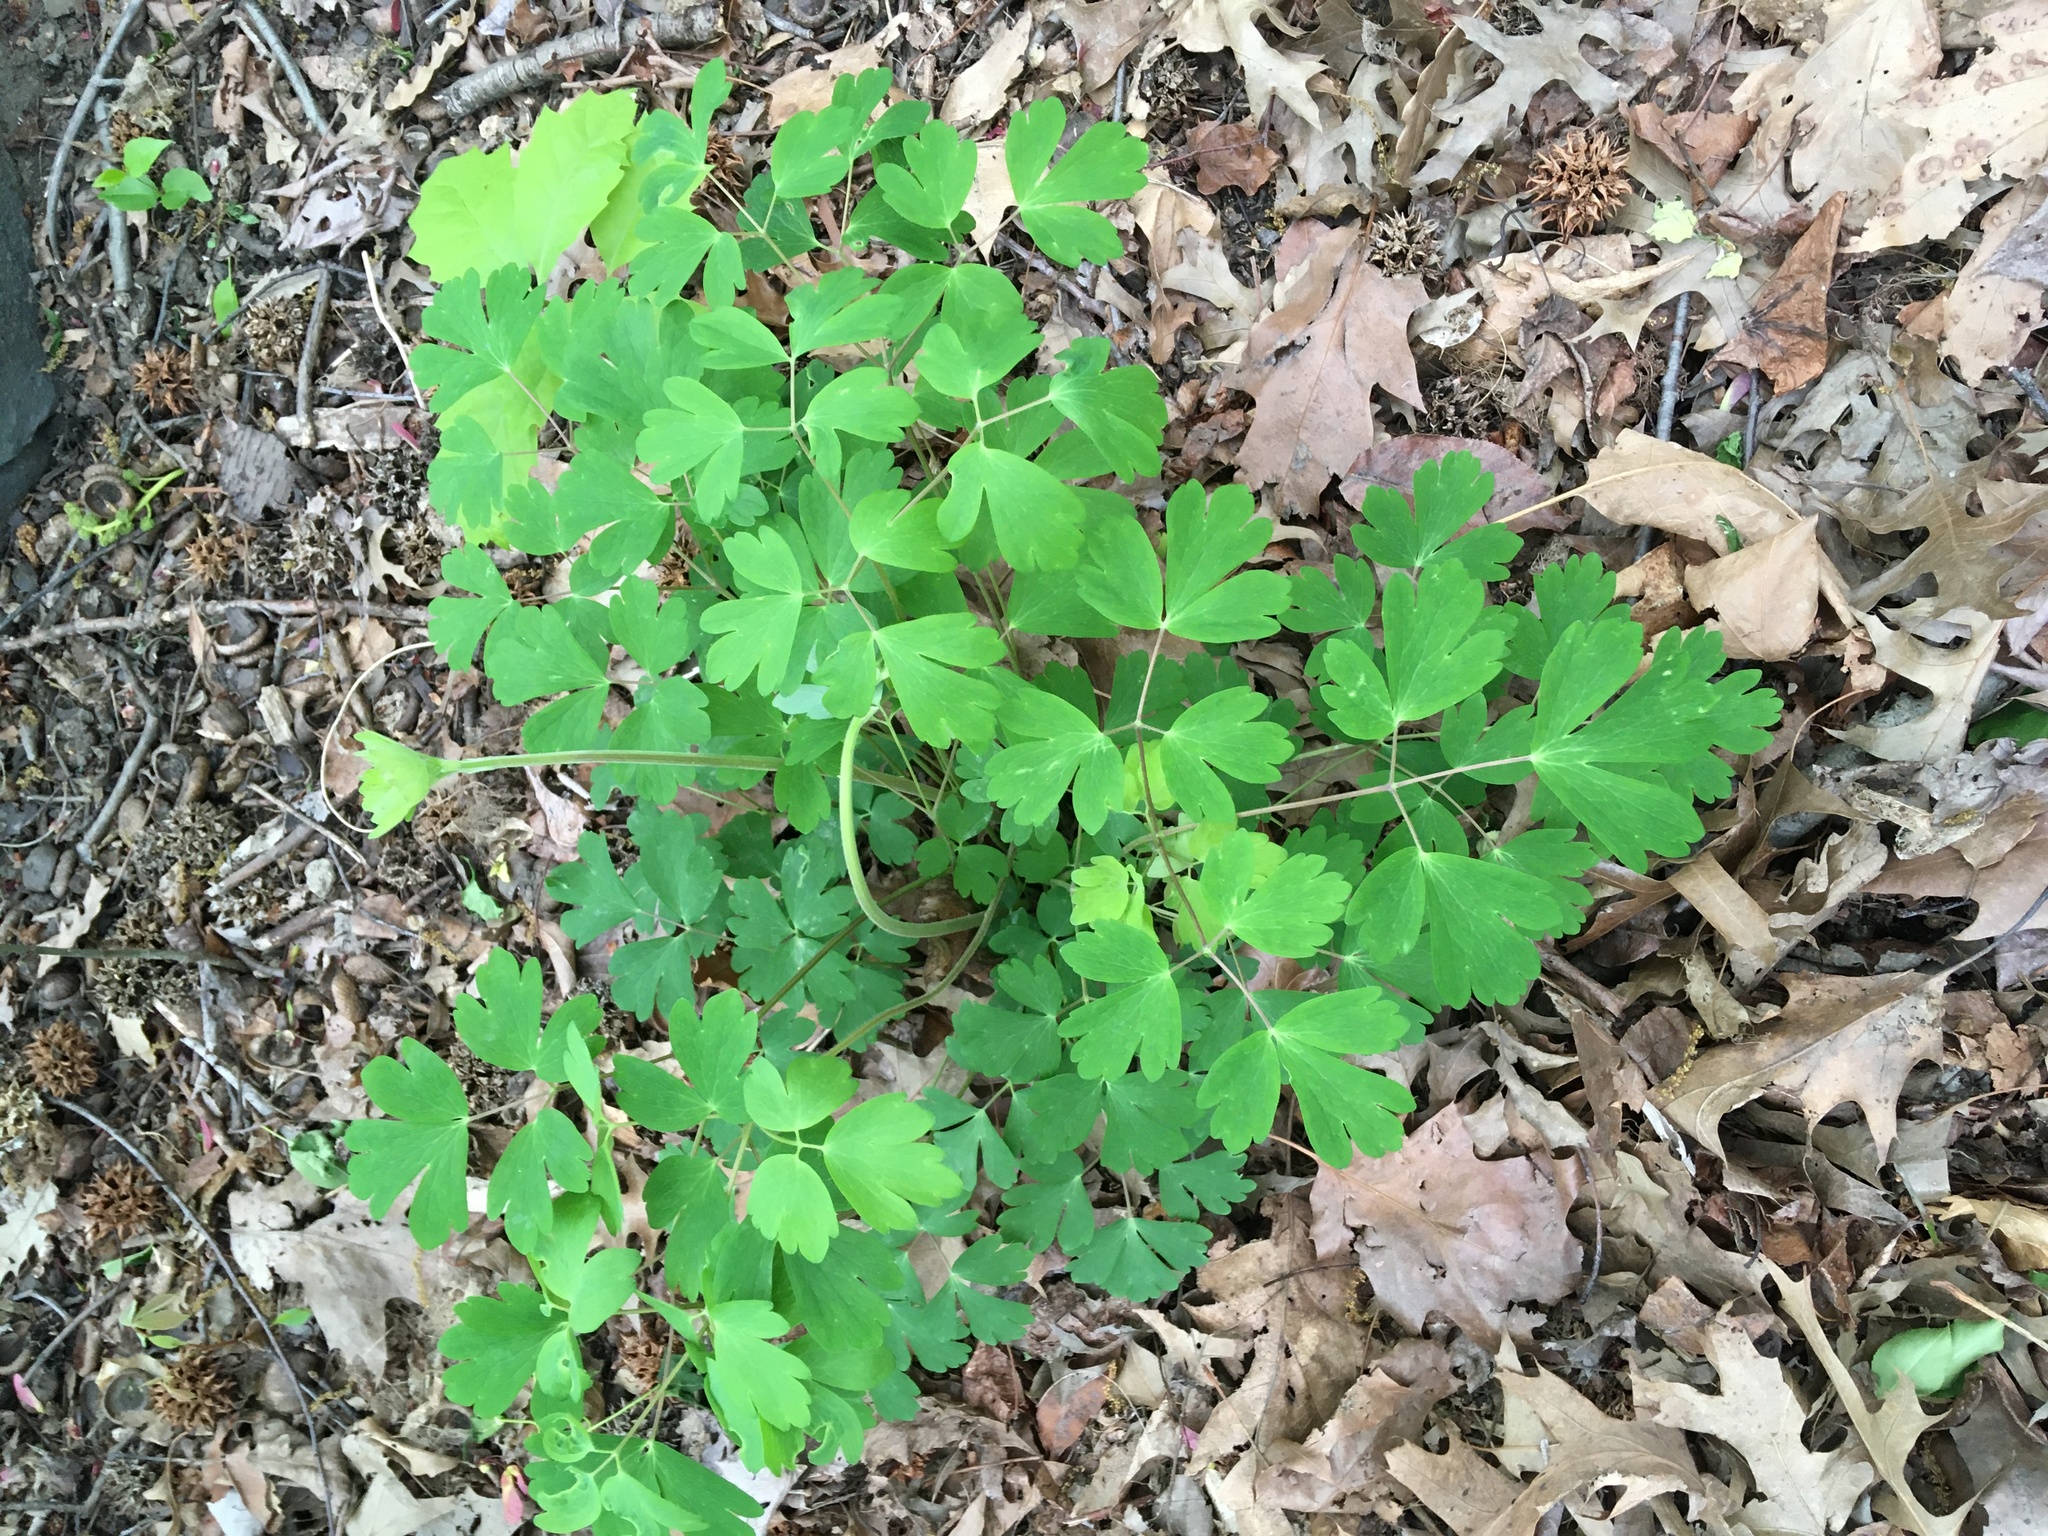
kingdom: Plantae
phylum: Tracheophyta
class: Magnoliopsida
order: Ranunculales
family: Ranunculaceae
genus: Aquilegia
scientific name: Aquilegia canadensis
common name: American columbine
